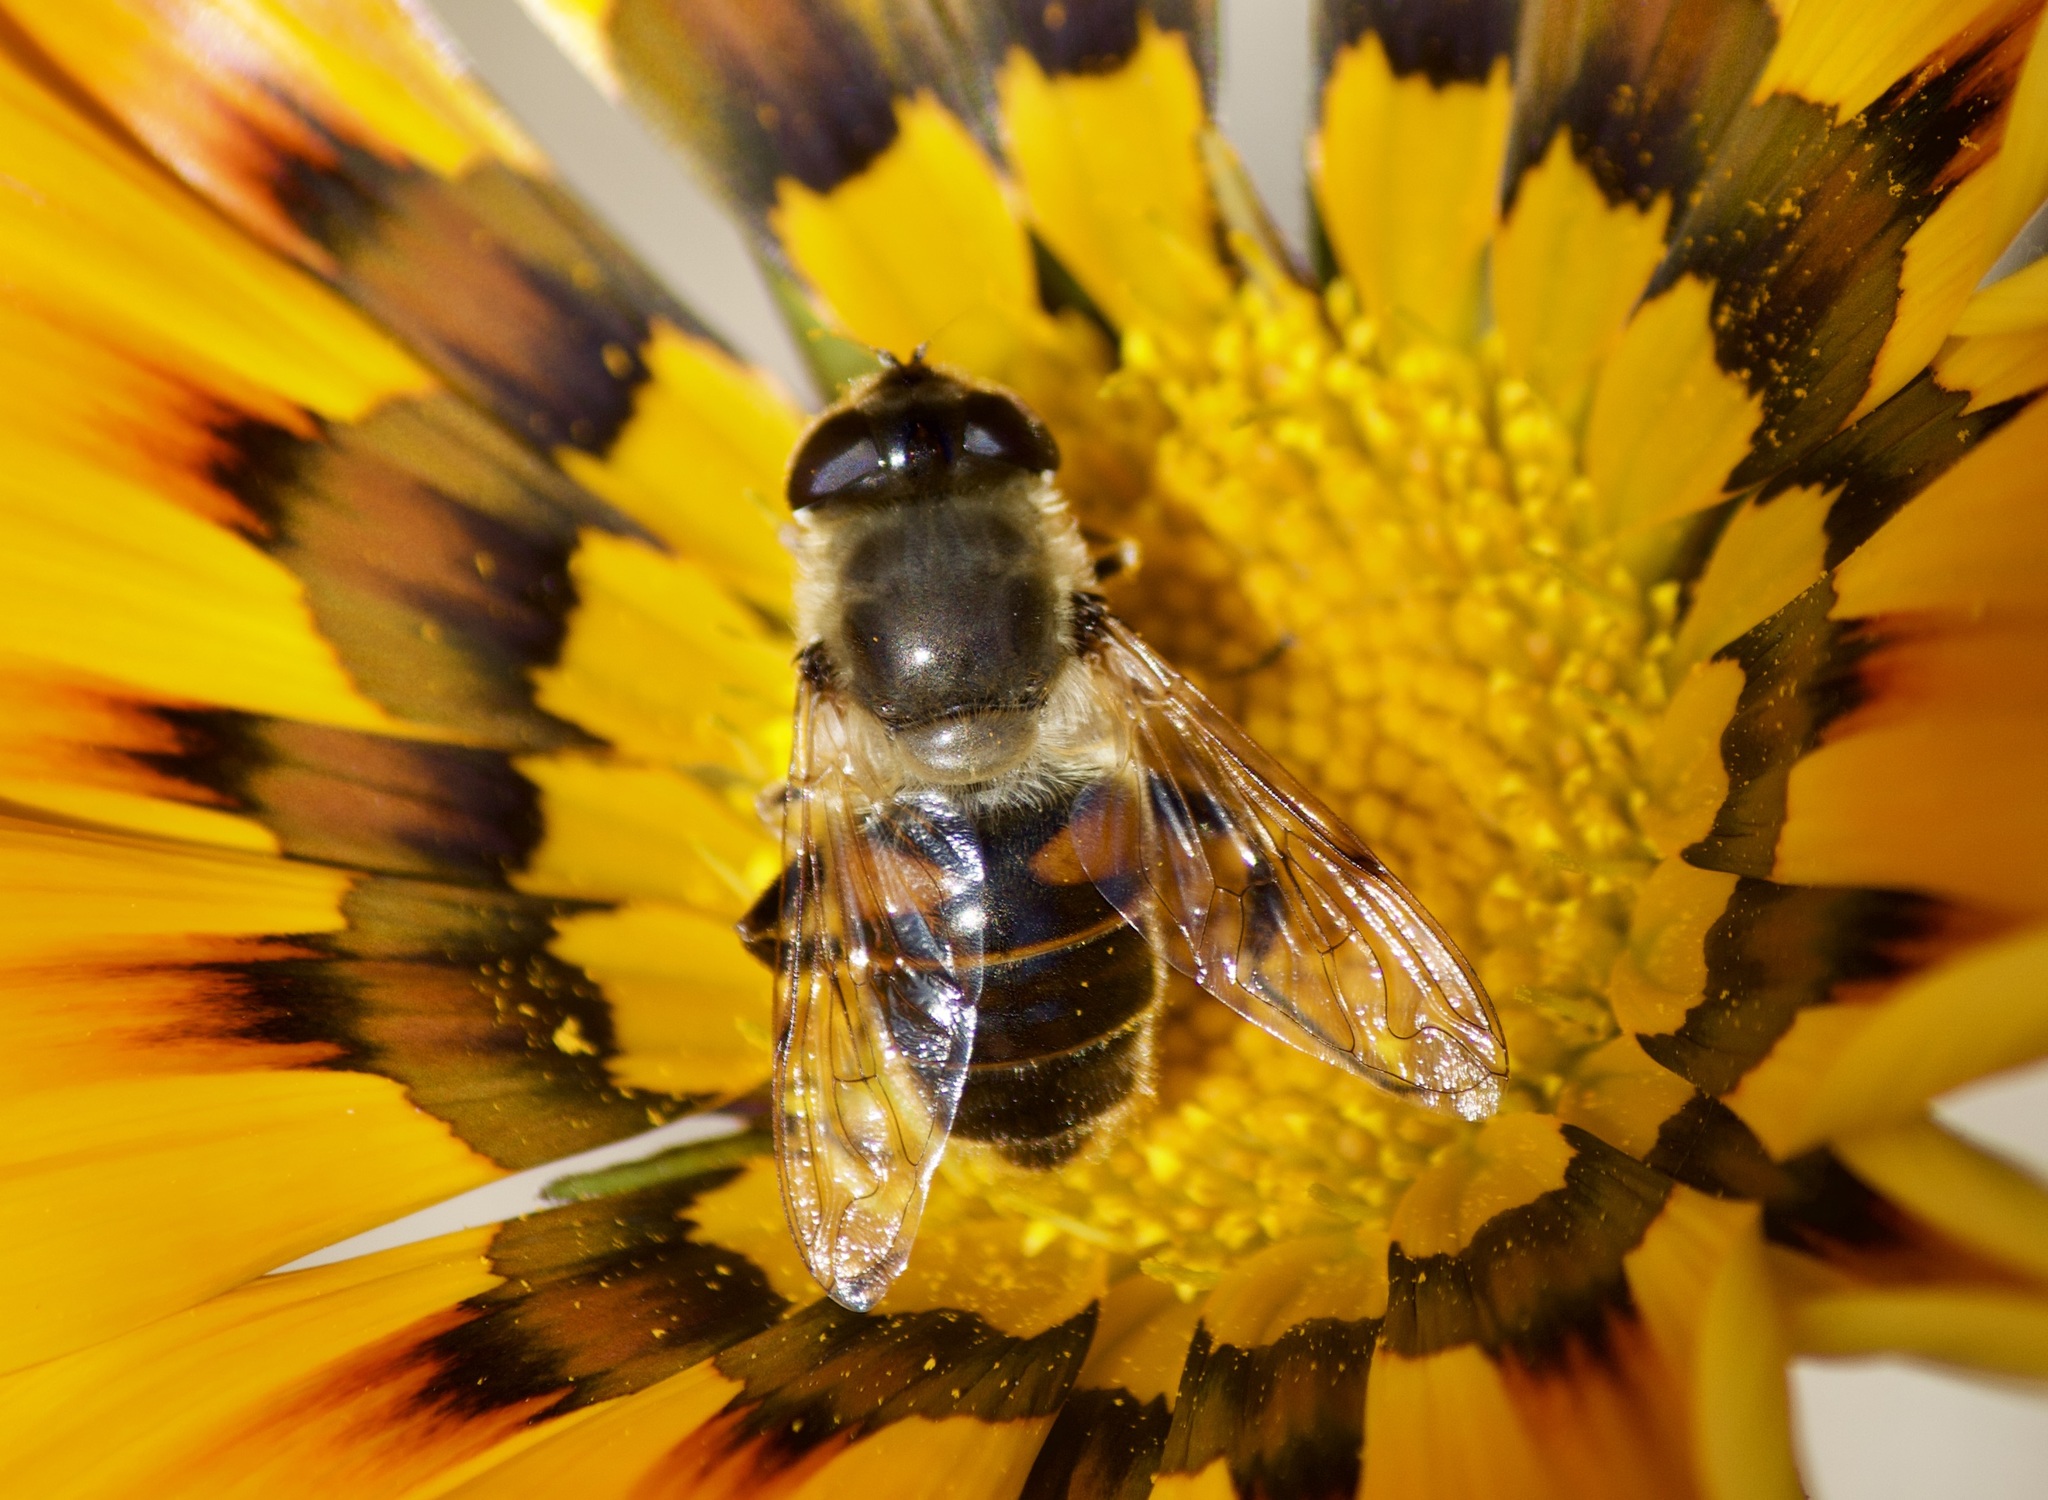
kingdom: Animalia
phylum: Arthropoda
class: Insecta
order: Diptera
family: Syrphidae
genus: Eristalis
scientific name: Eristalis tenax
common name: Drone fly
